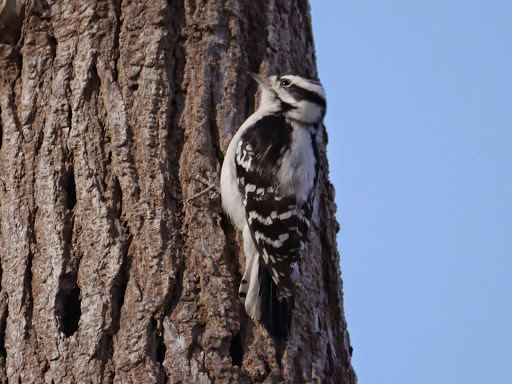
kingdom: Animalia
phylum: Chordata
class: Aves
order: Piciformes
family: Picidae
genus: Dryobates
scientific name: Dryobates pubescens
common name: Downy woodpecker
